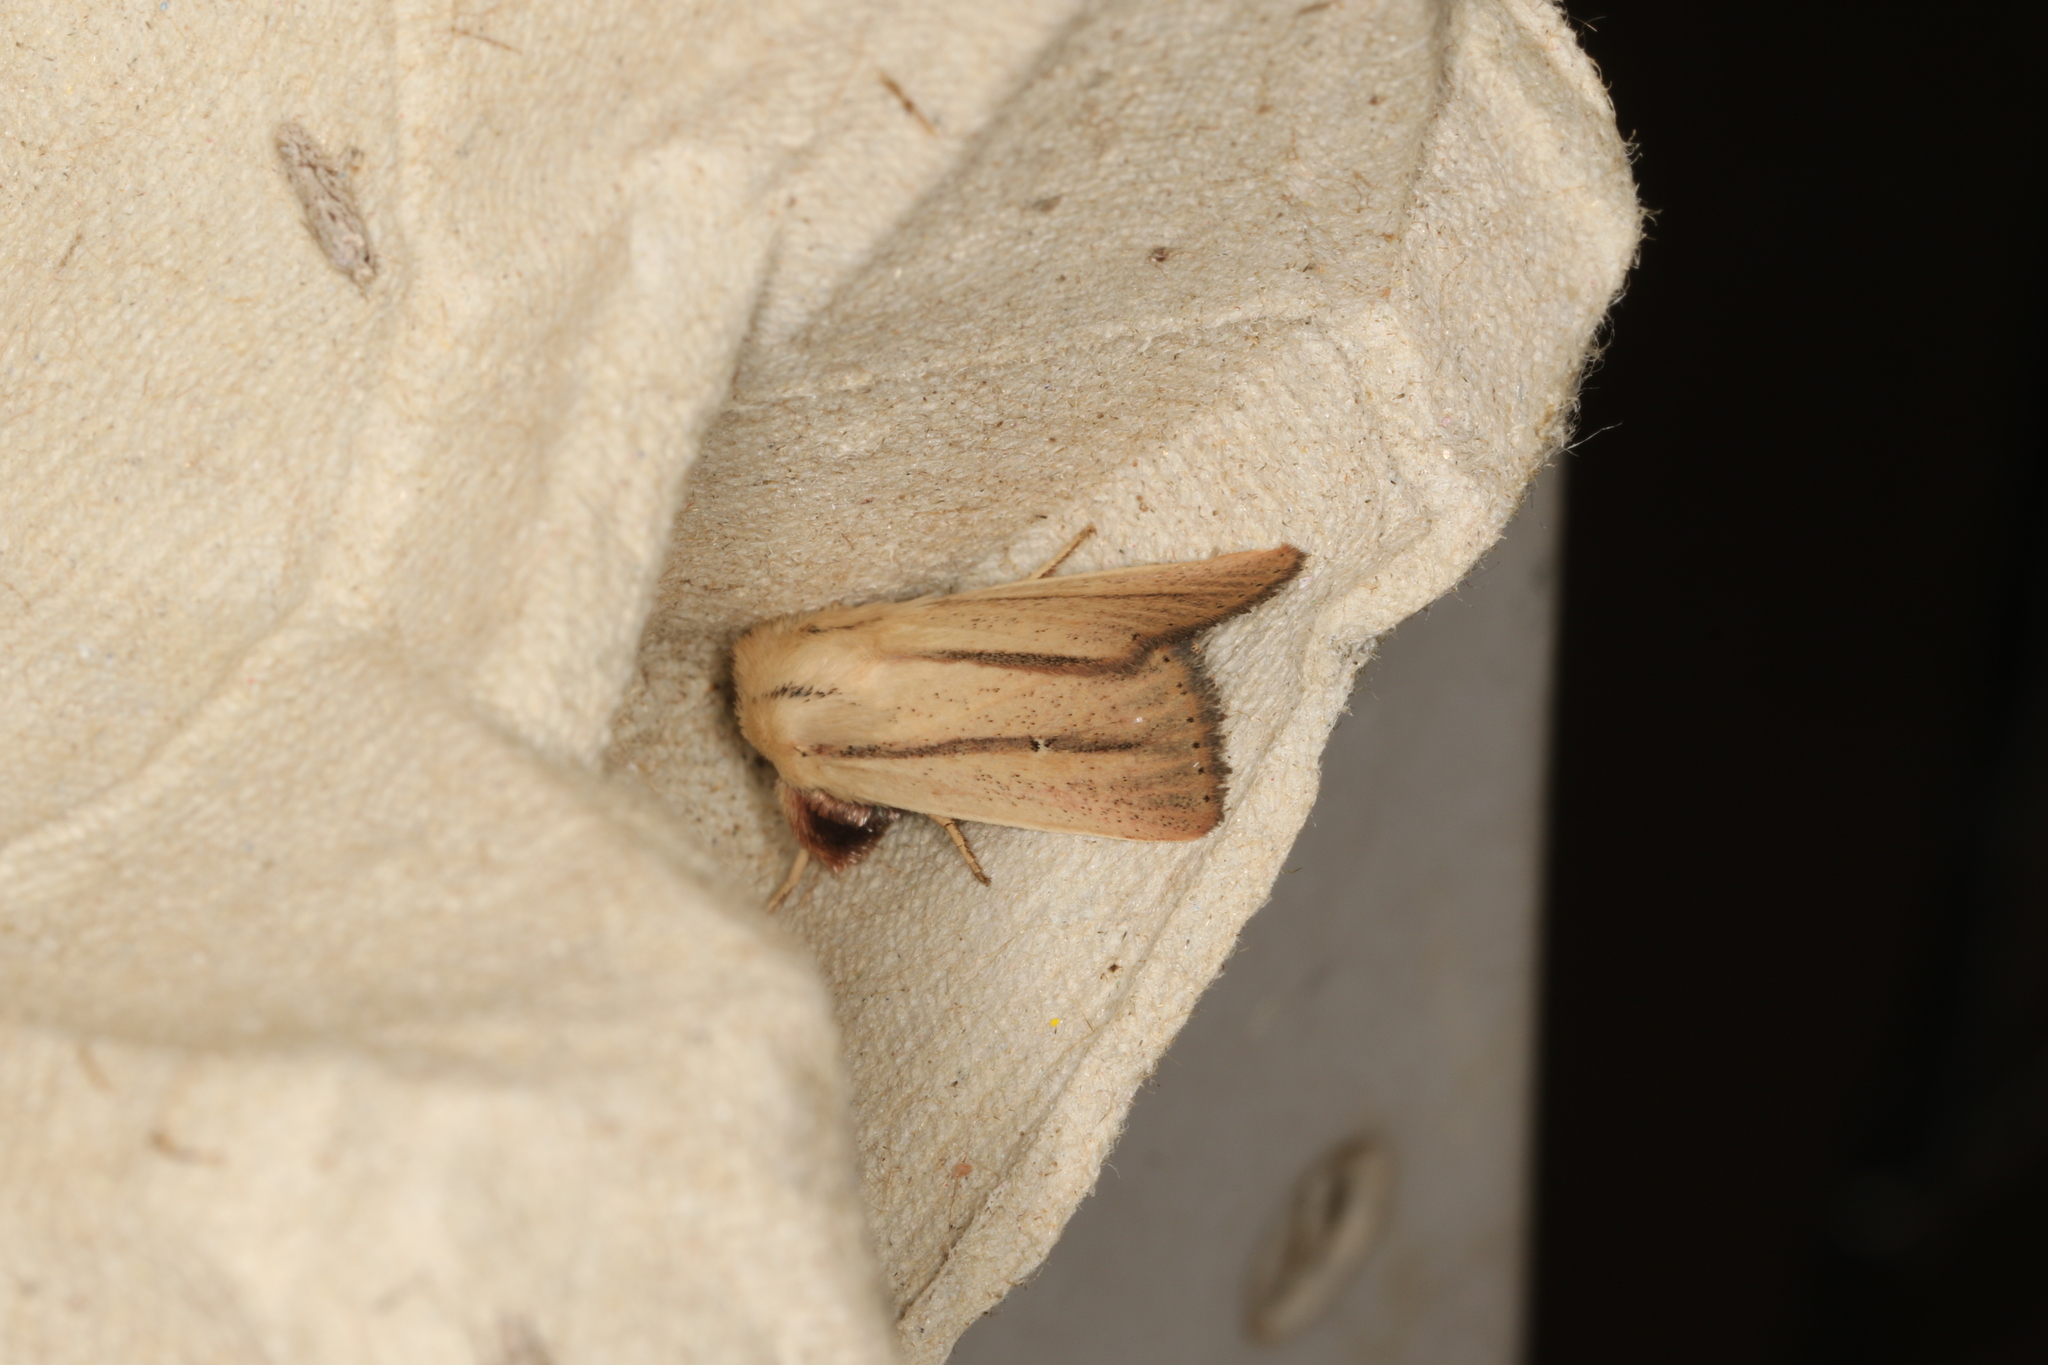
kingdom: Animalia
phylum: Arthropoda
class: Insecta
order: Lepidoptera
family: Noctuidae
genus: Leucania
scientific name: Leucania diatrecta
